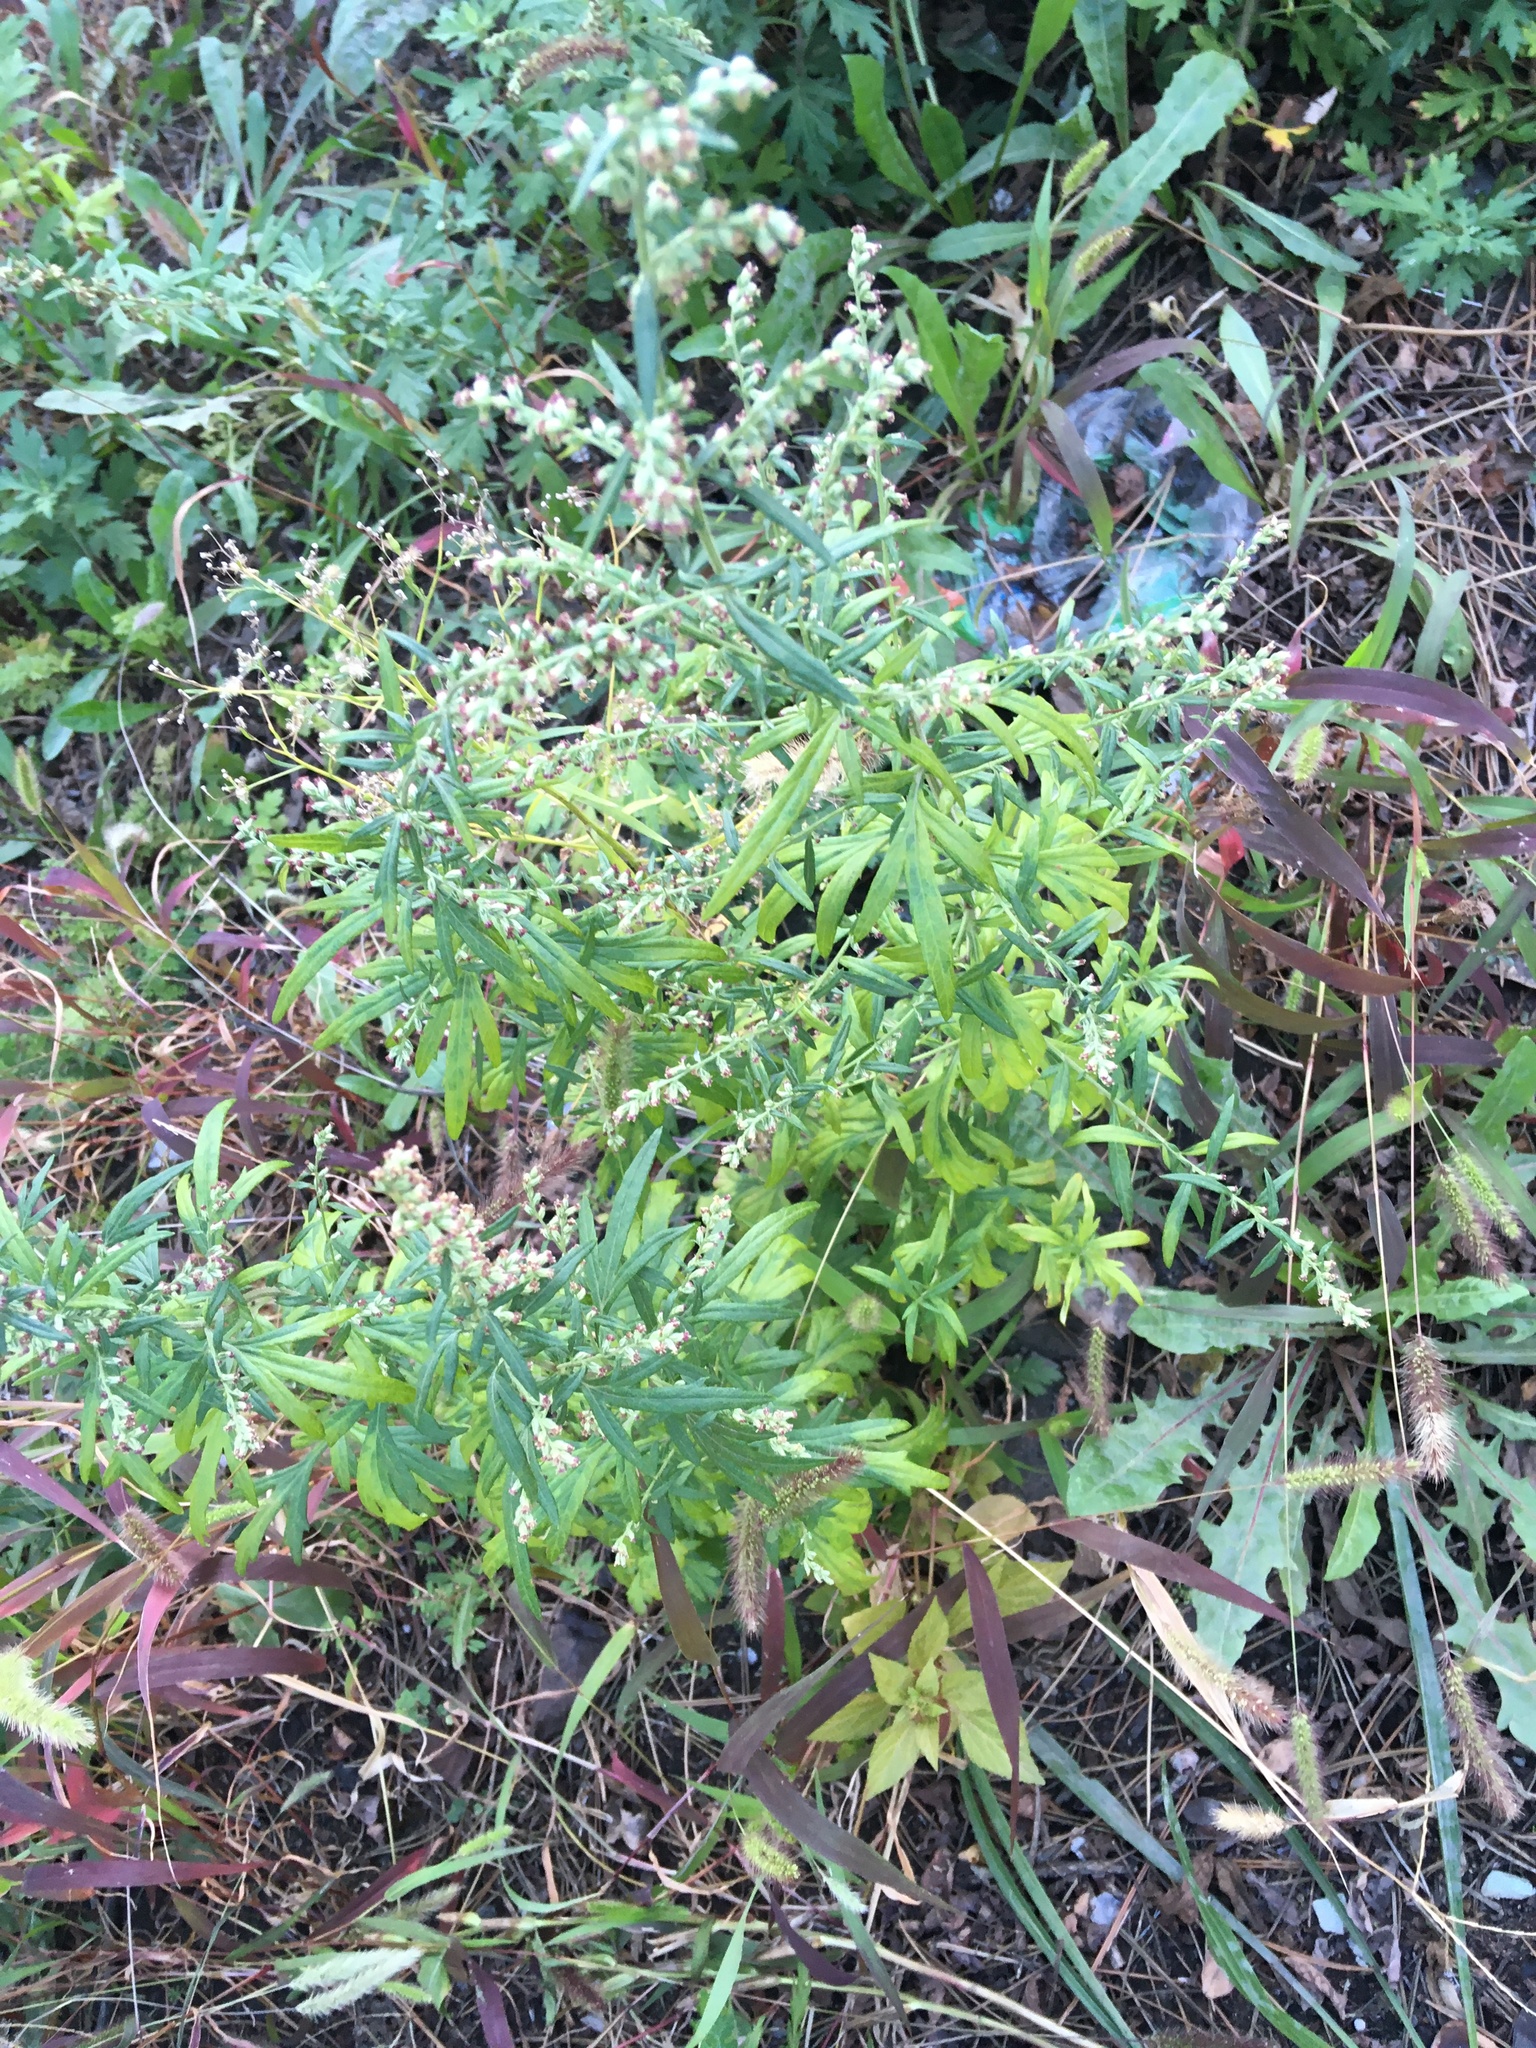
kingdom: Plantae
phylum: Tracheophyta
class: Magnoliopsida
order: Asterales
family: Asteraceae
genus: Artemisia
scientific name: Artemisia vulgaris
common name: Mugwort
